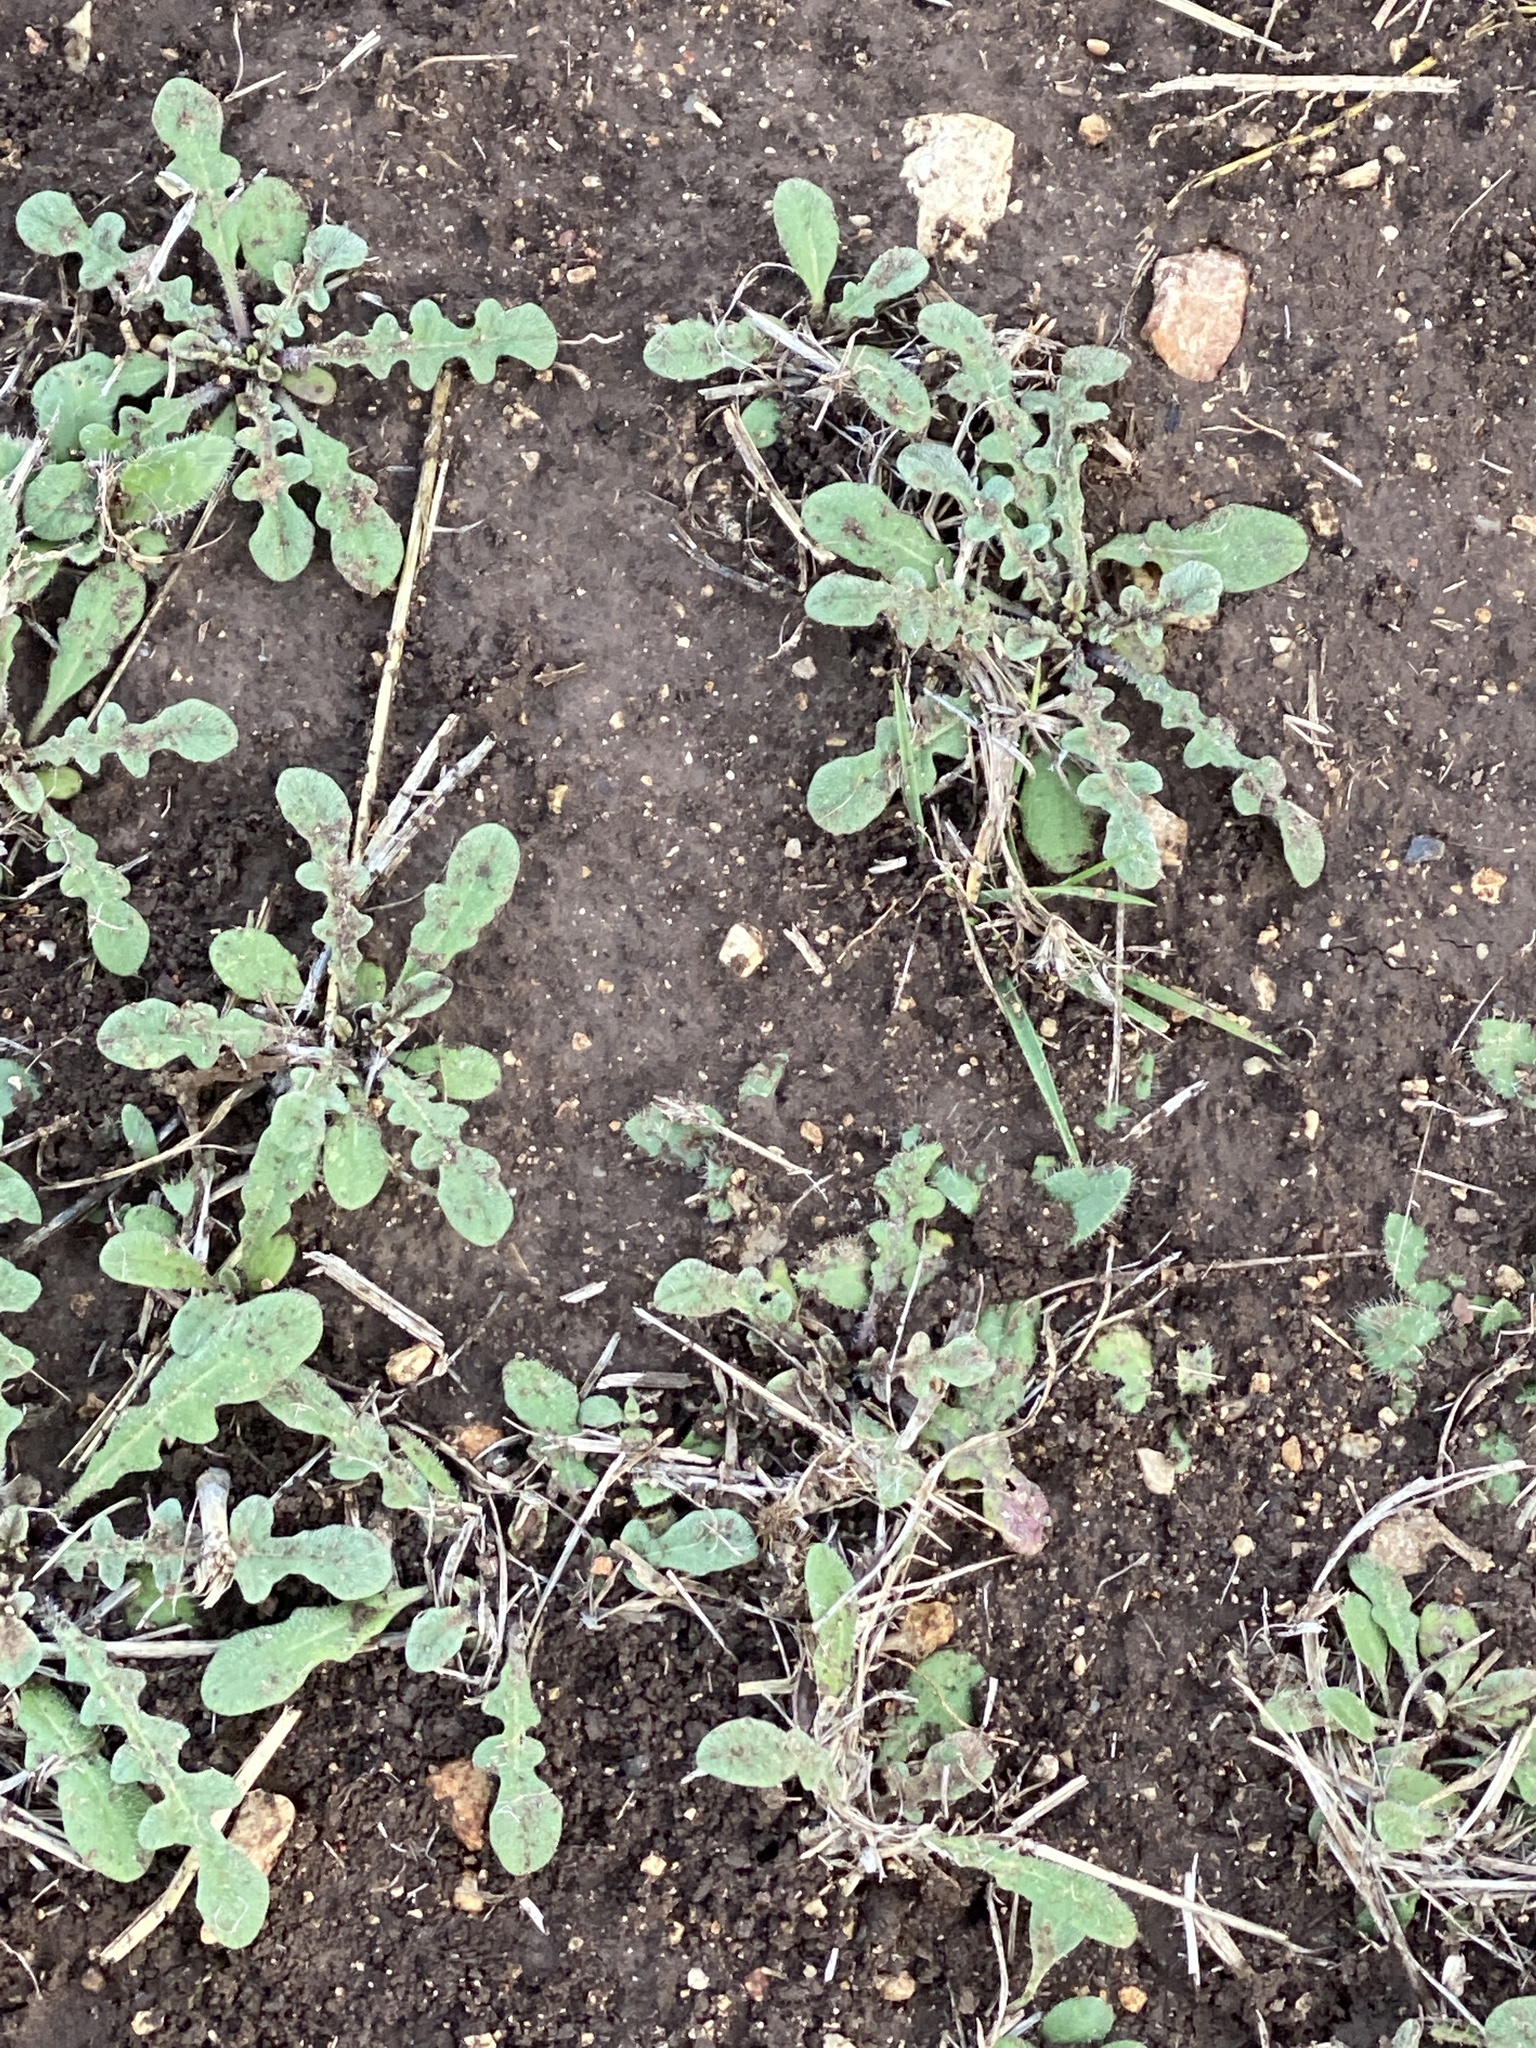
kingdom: Plantae
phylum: Tracheophyta
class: Magnoliopsida
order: Asterales
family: Asteraceae
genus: Centaurea
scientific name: Centaurea melitensis
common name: Maltese star-thistle
